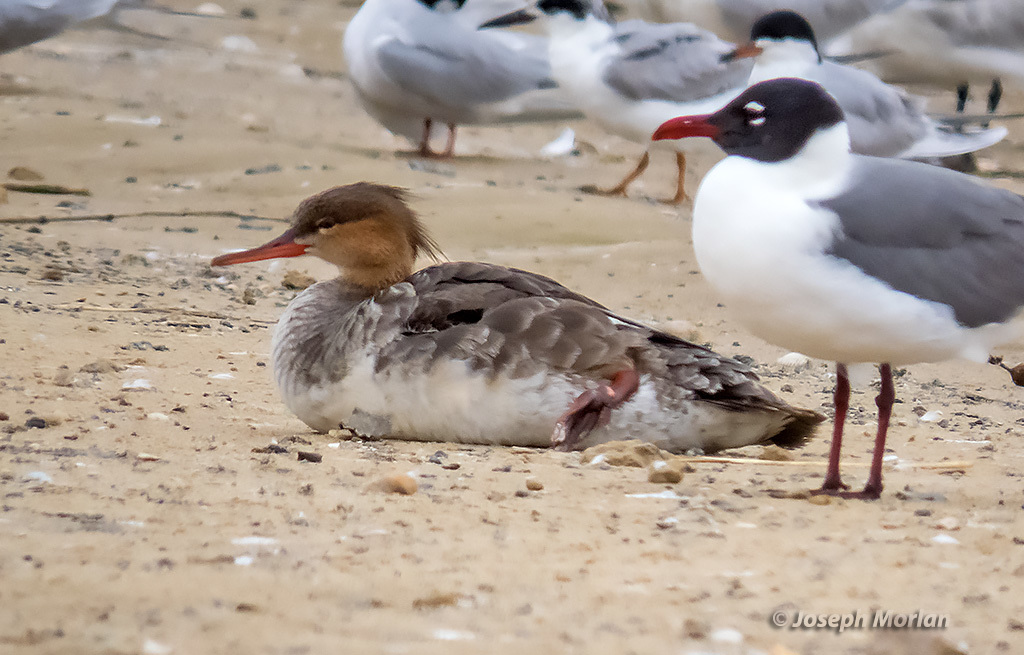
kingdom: Animalia
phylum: Chordata
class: Aves
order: Anseriformes
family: Anatidae
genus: Mergus
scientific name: Mergus serrator
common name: Red-breasted merganser
